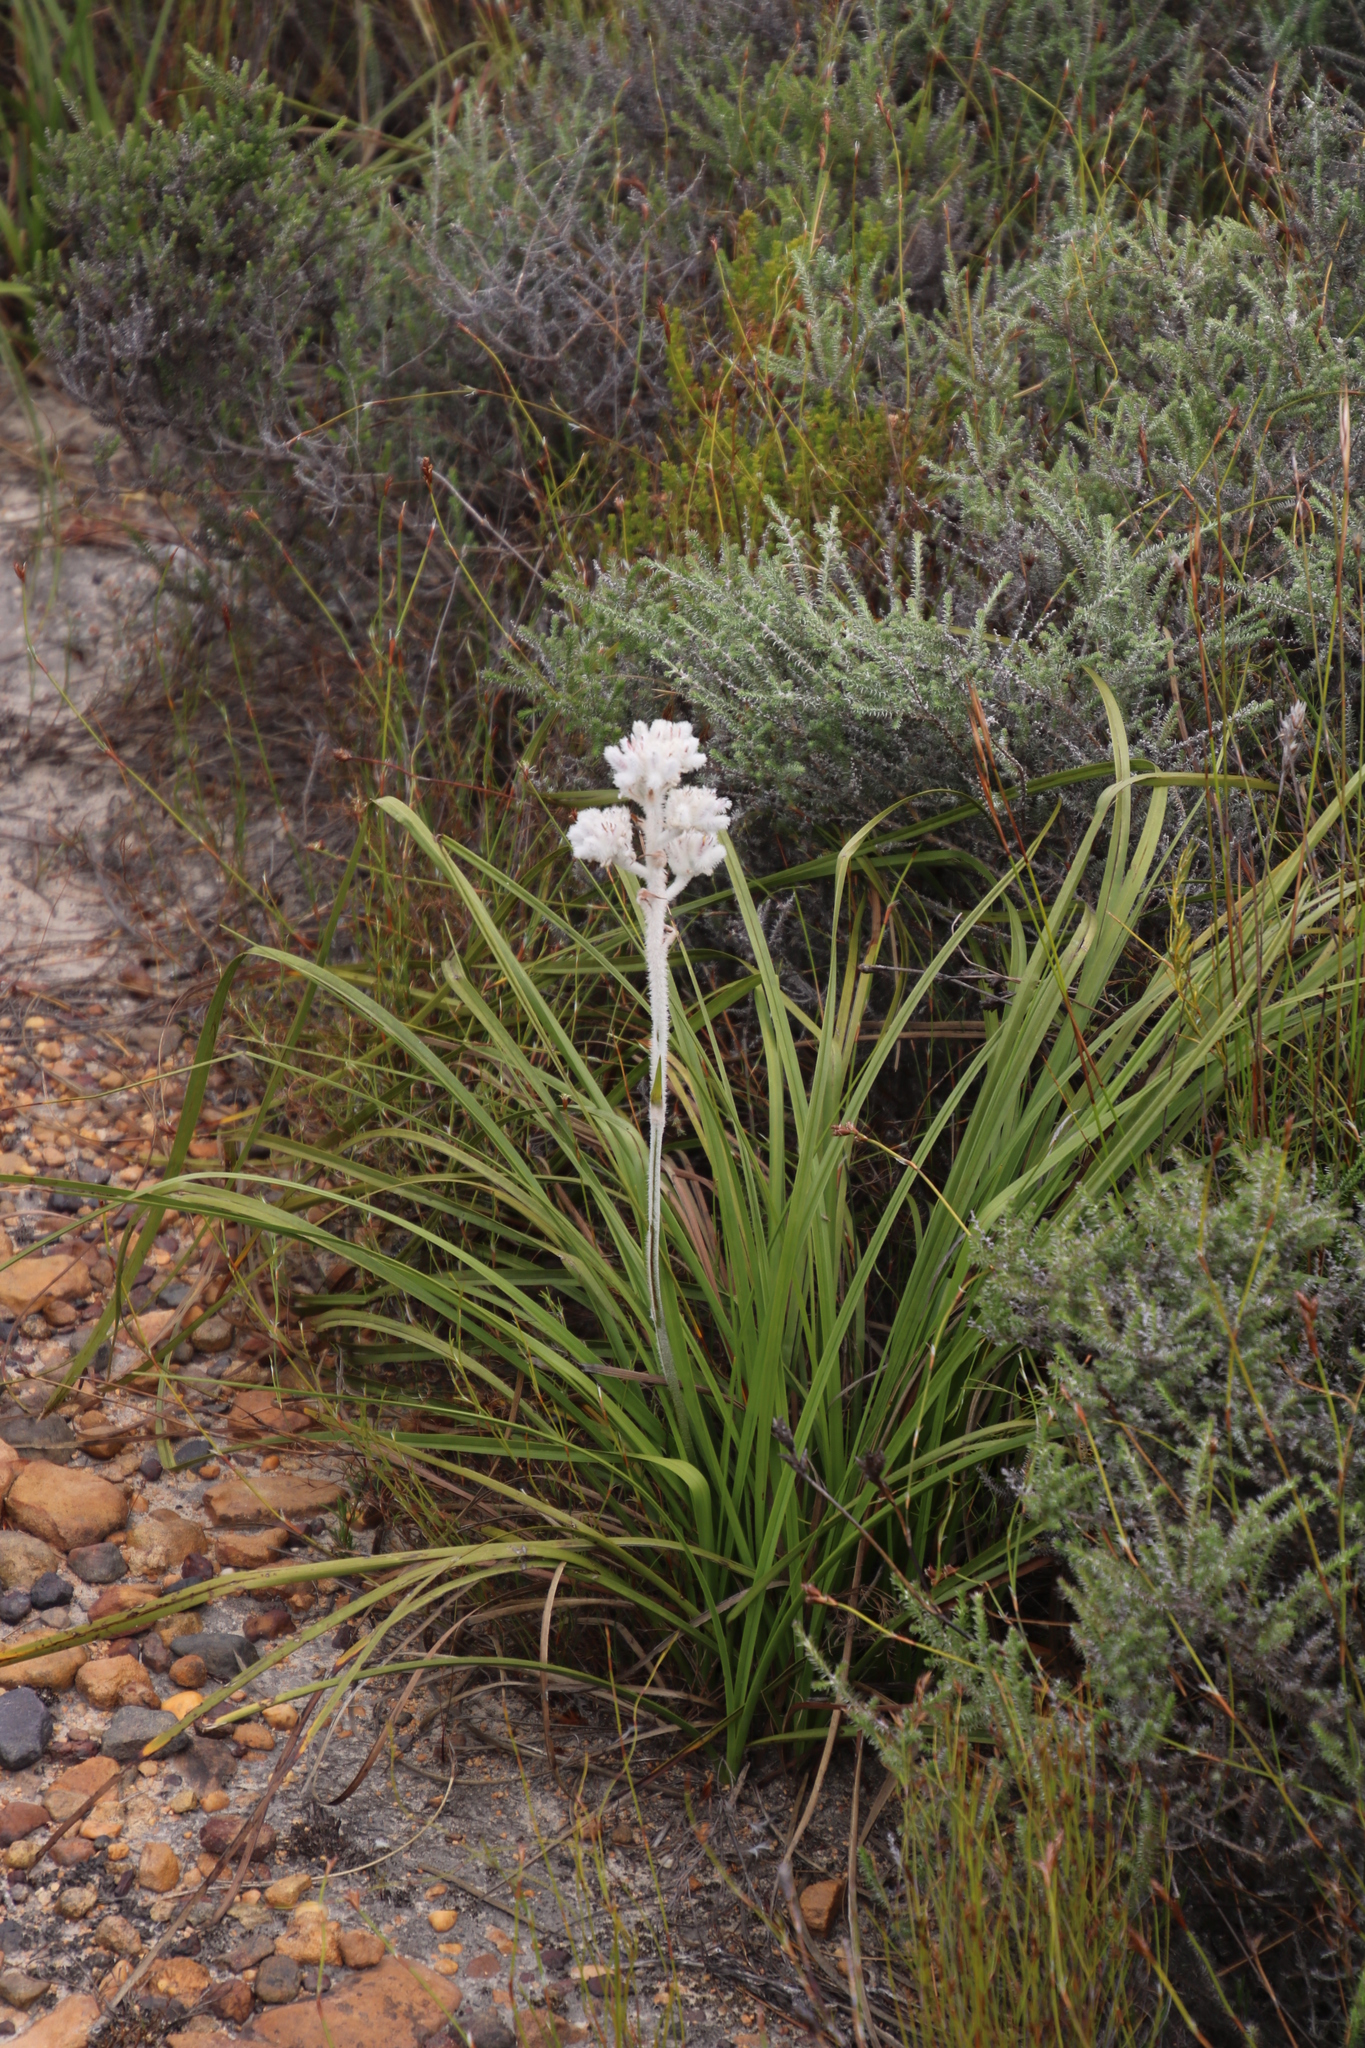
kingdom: Plantae
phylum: Tracheophyta
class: Liliopsida
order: Asparagales
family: Lanariaceae
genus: Lanaria
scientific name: Lanaria lanata
